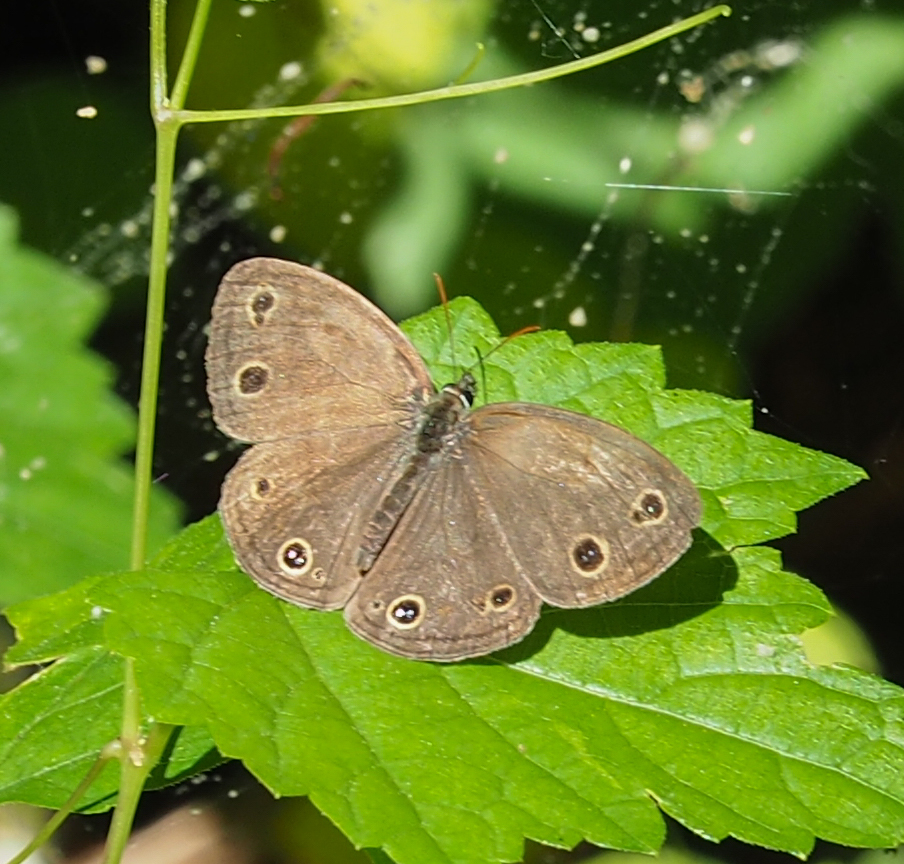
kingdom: Animalia
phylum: Arthropoda
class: Insecta
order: Lepidoptera
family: Nymphalidae
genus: Euptychia
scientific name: Euptychia cymela
